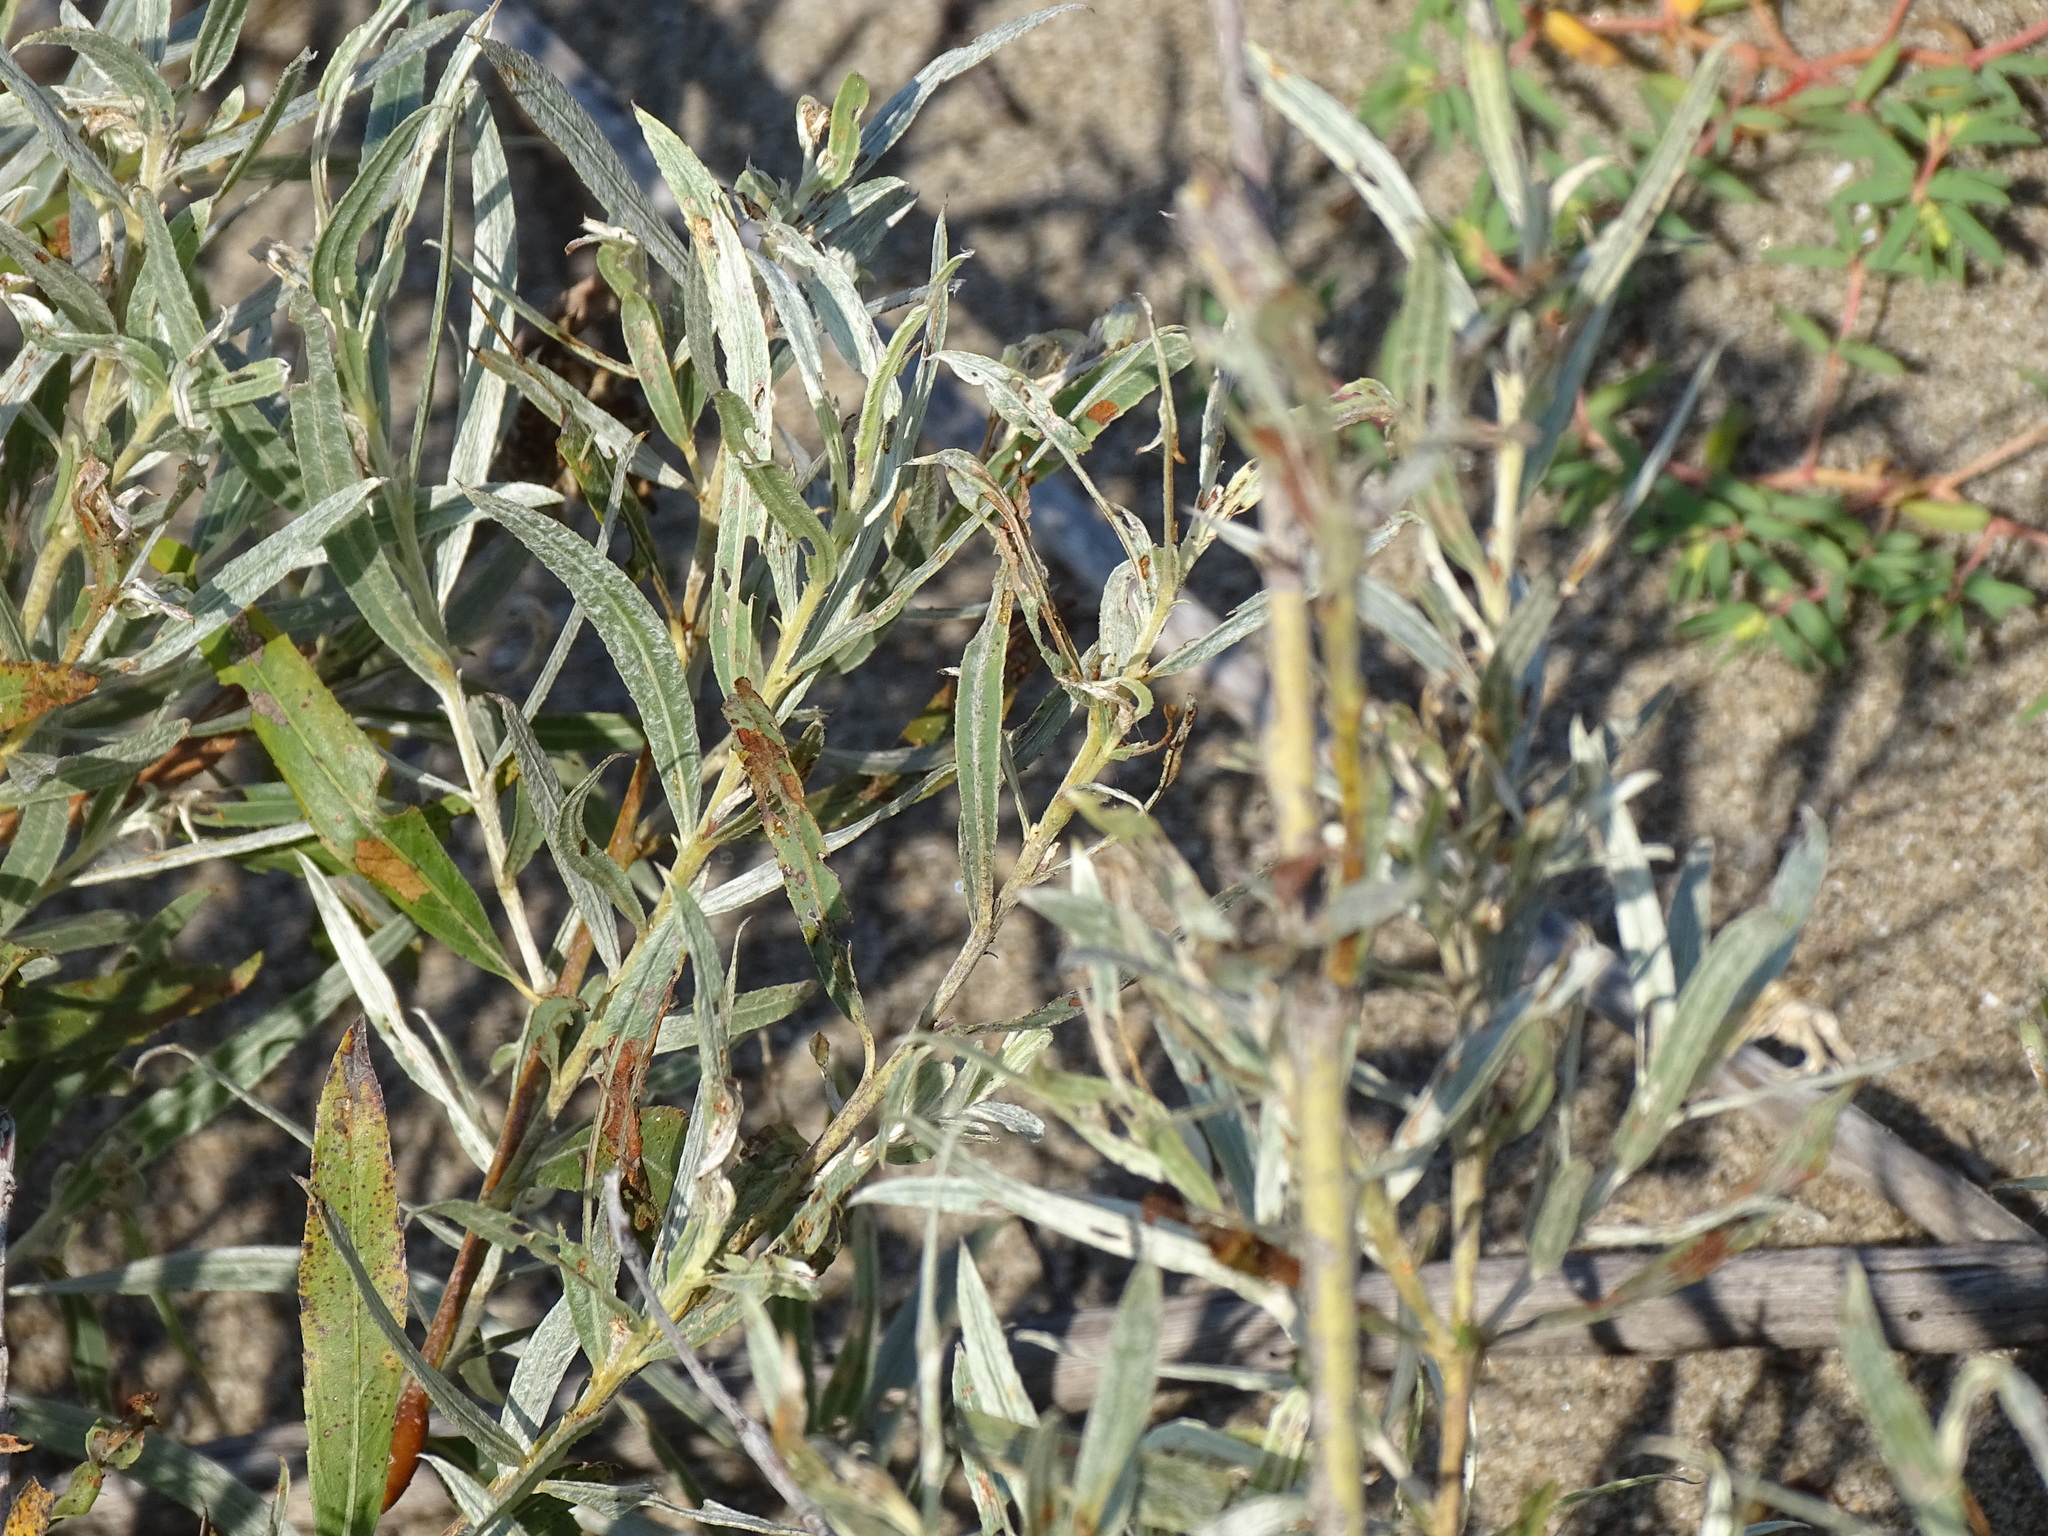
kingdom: Plantae
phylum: Tracheophyta
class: Magnoliopsida
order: Malpighiales
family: Salicaceae
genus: Salix
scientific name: Salix interior
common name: Sandbar willow
